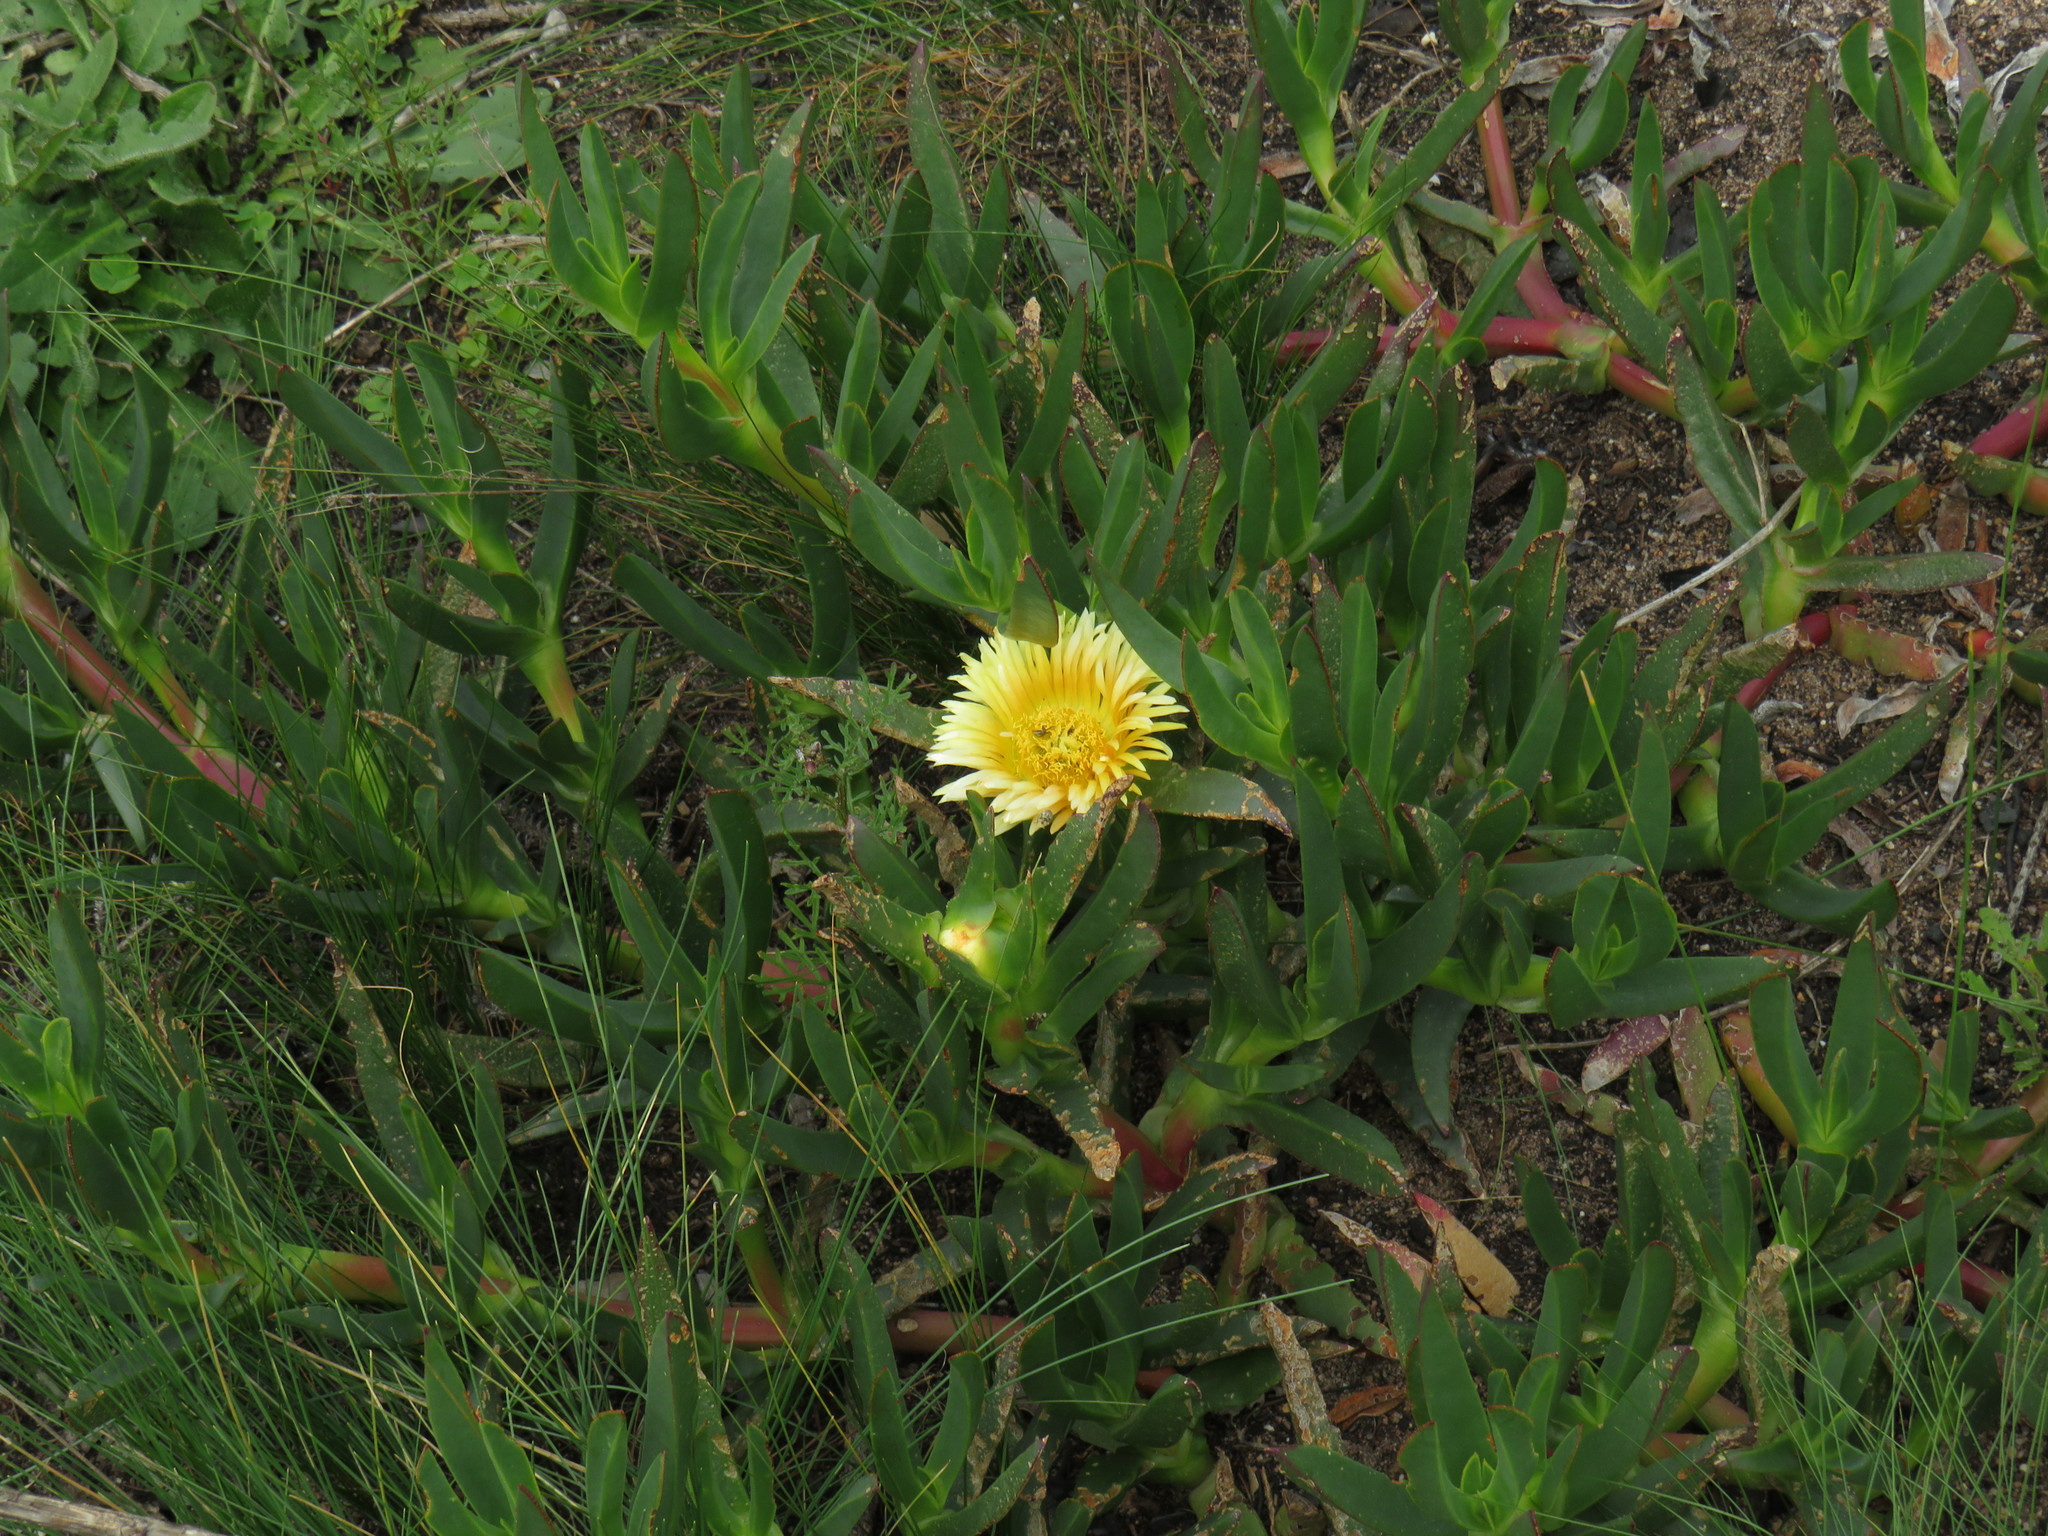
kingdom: Plantae
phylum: Tracheophyta
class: Magnoliopsida
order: Caryophyllales
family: Aizoaceae
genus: Carpobrotus
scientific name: Carpobrotus edulis
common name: Hottentot-fig
